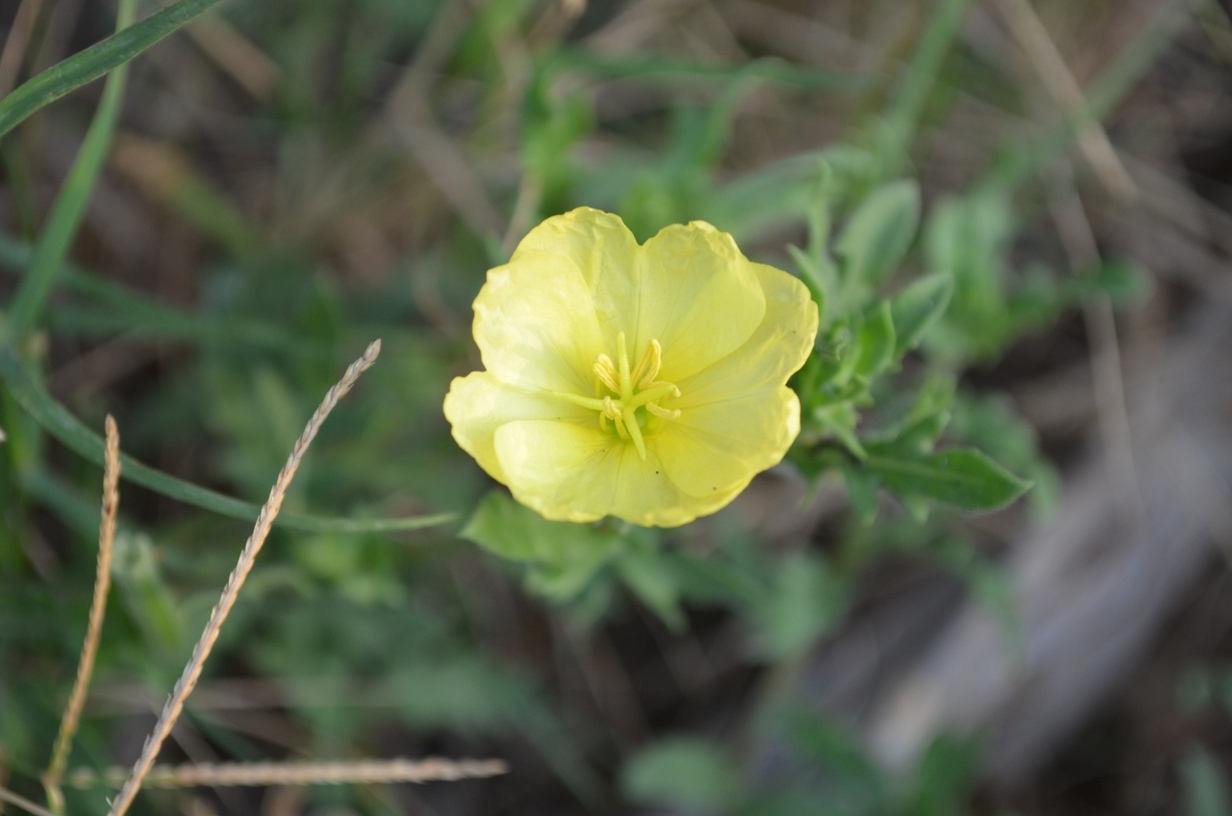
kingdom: Plantae
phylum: Tracheophyta
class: Magnoliopsida
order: Myrtales
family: Onagraceae
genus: Oenothera
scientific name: Oenothera humifusa
